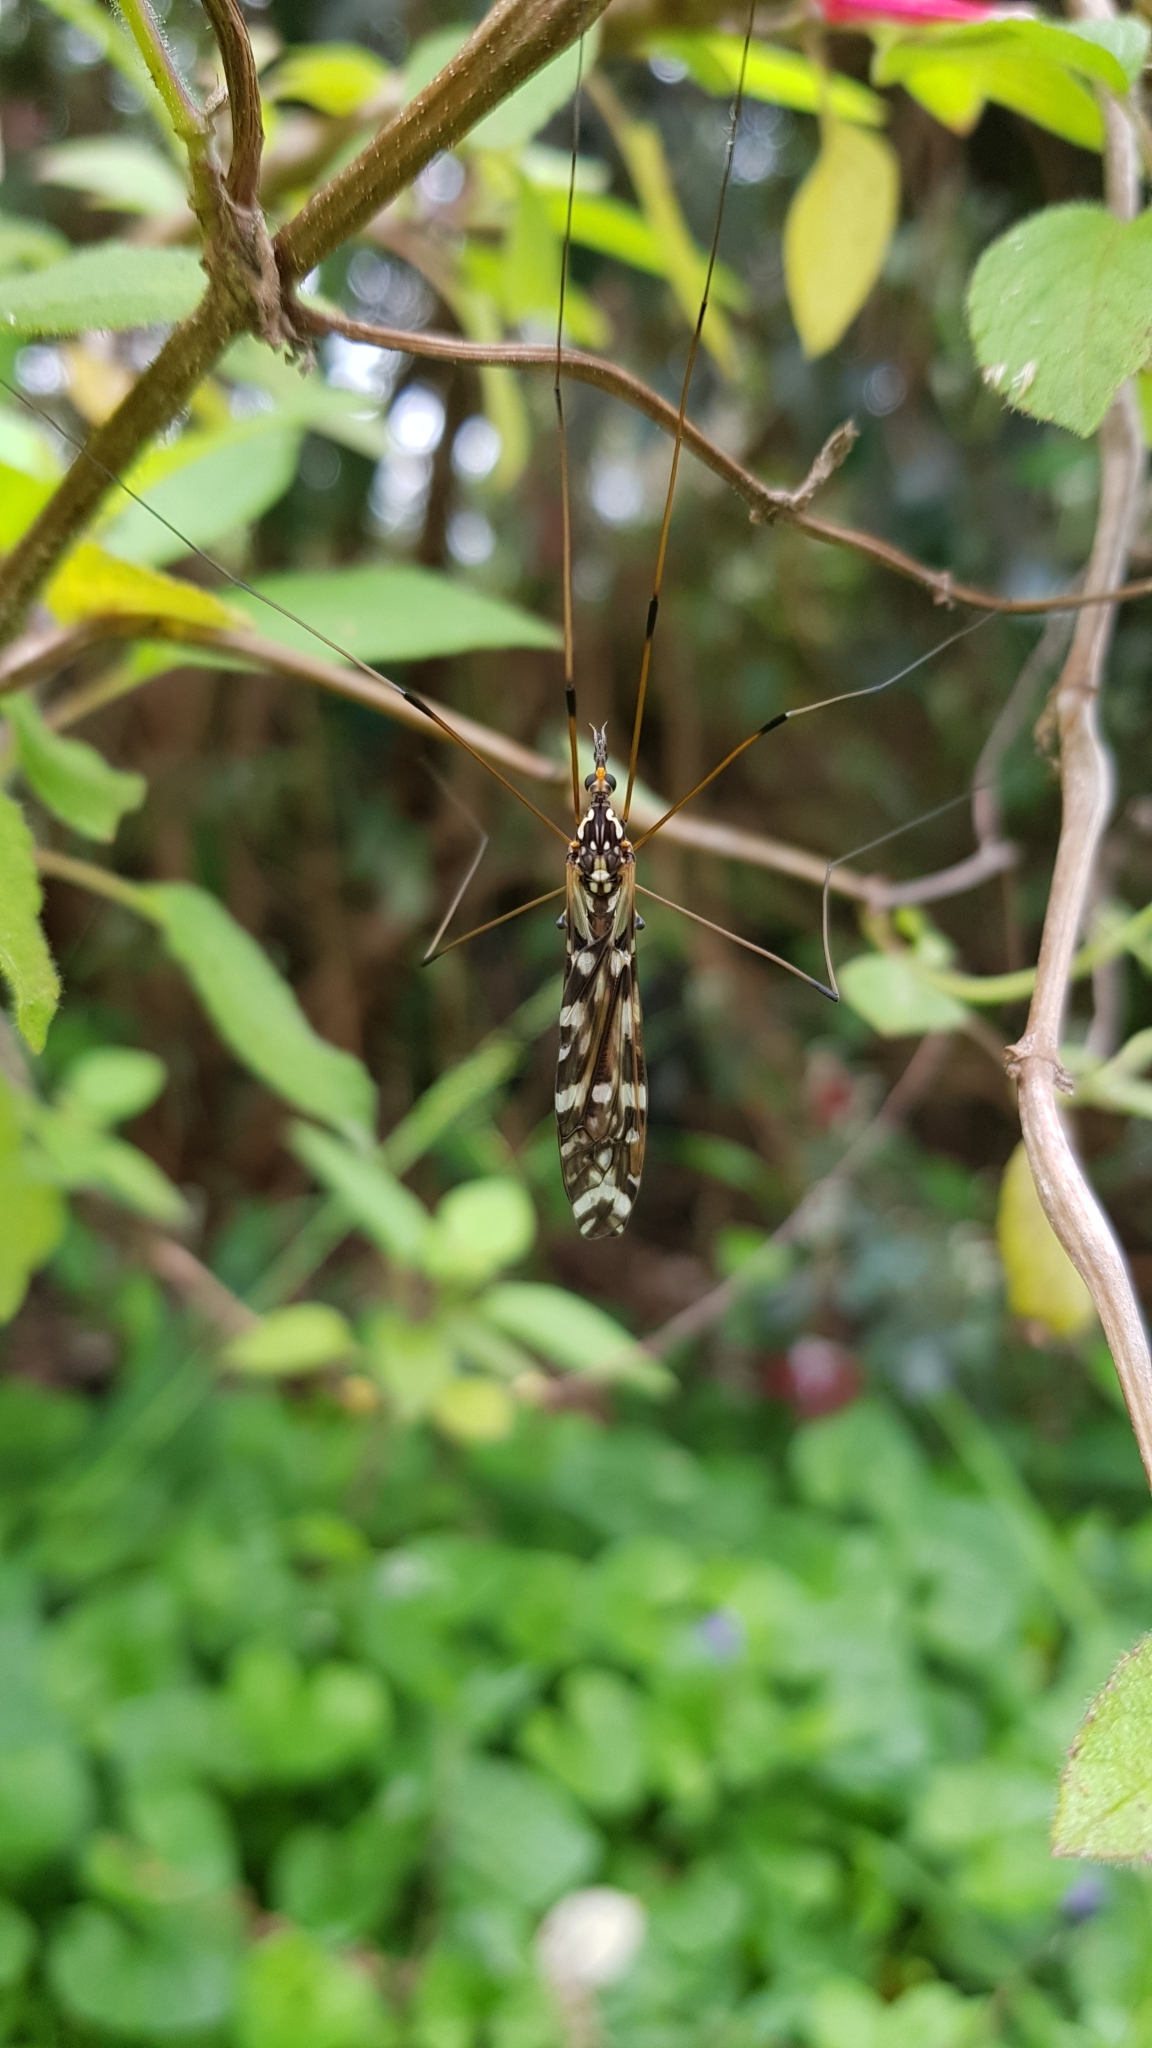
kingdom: Animalia
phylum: Arthropoda
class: Insecta
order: Diptera
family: Tipulidae
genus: Ischnotoma
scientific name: Ischnotoma eburnea
